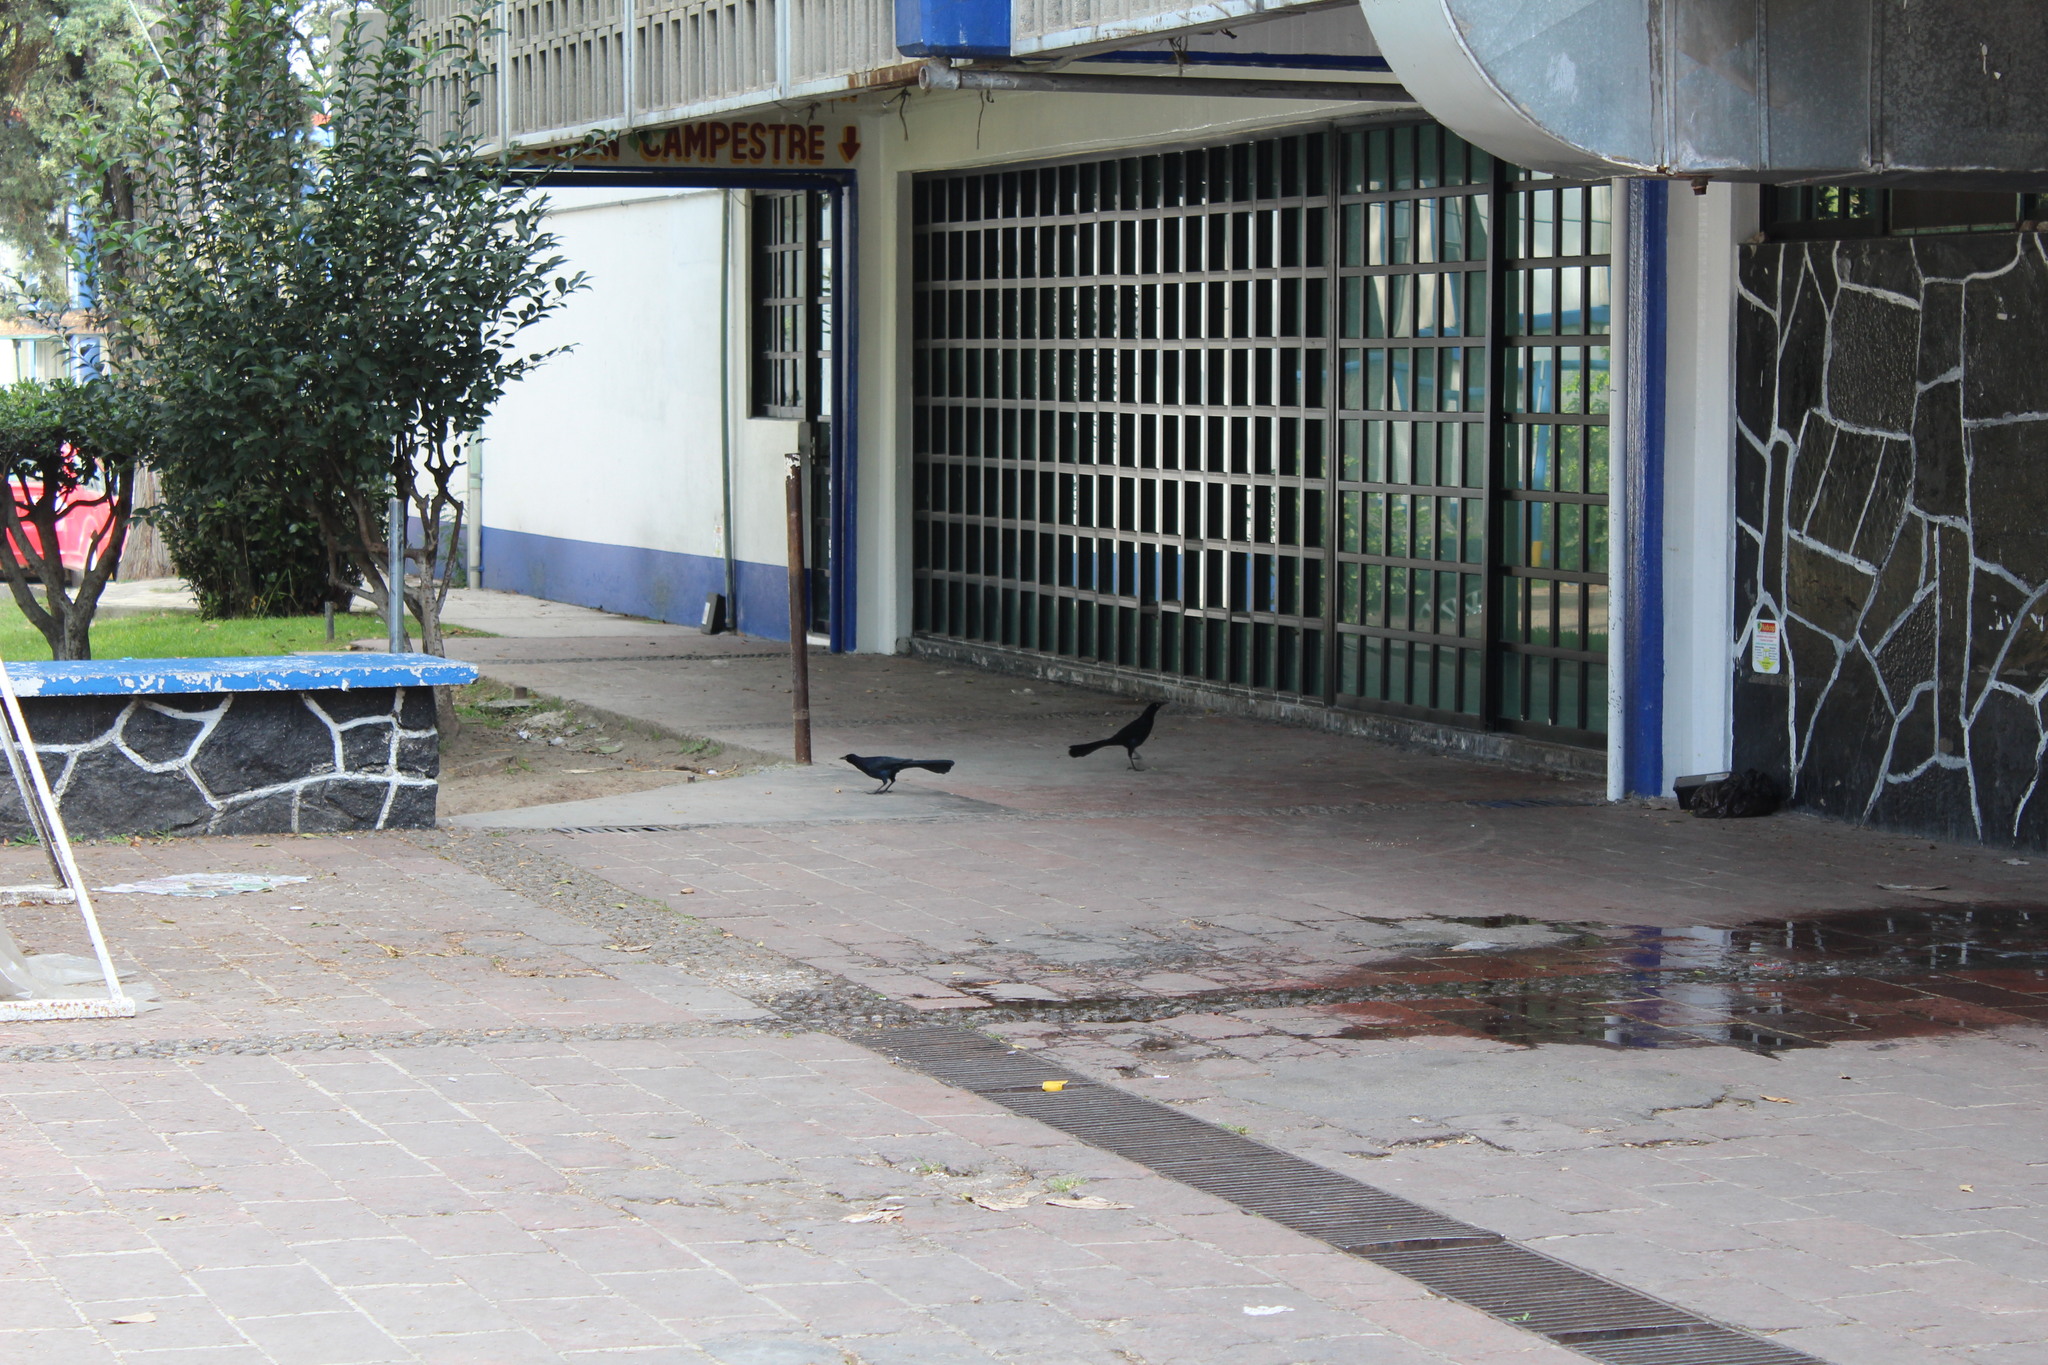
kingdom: Animalia
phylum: Chordata
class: Aves
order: Passeriformes
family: Icteridae
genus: Quiscalus
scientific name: Quiscalus mexicanus
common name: Great-tailed grackle
